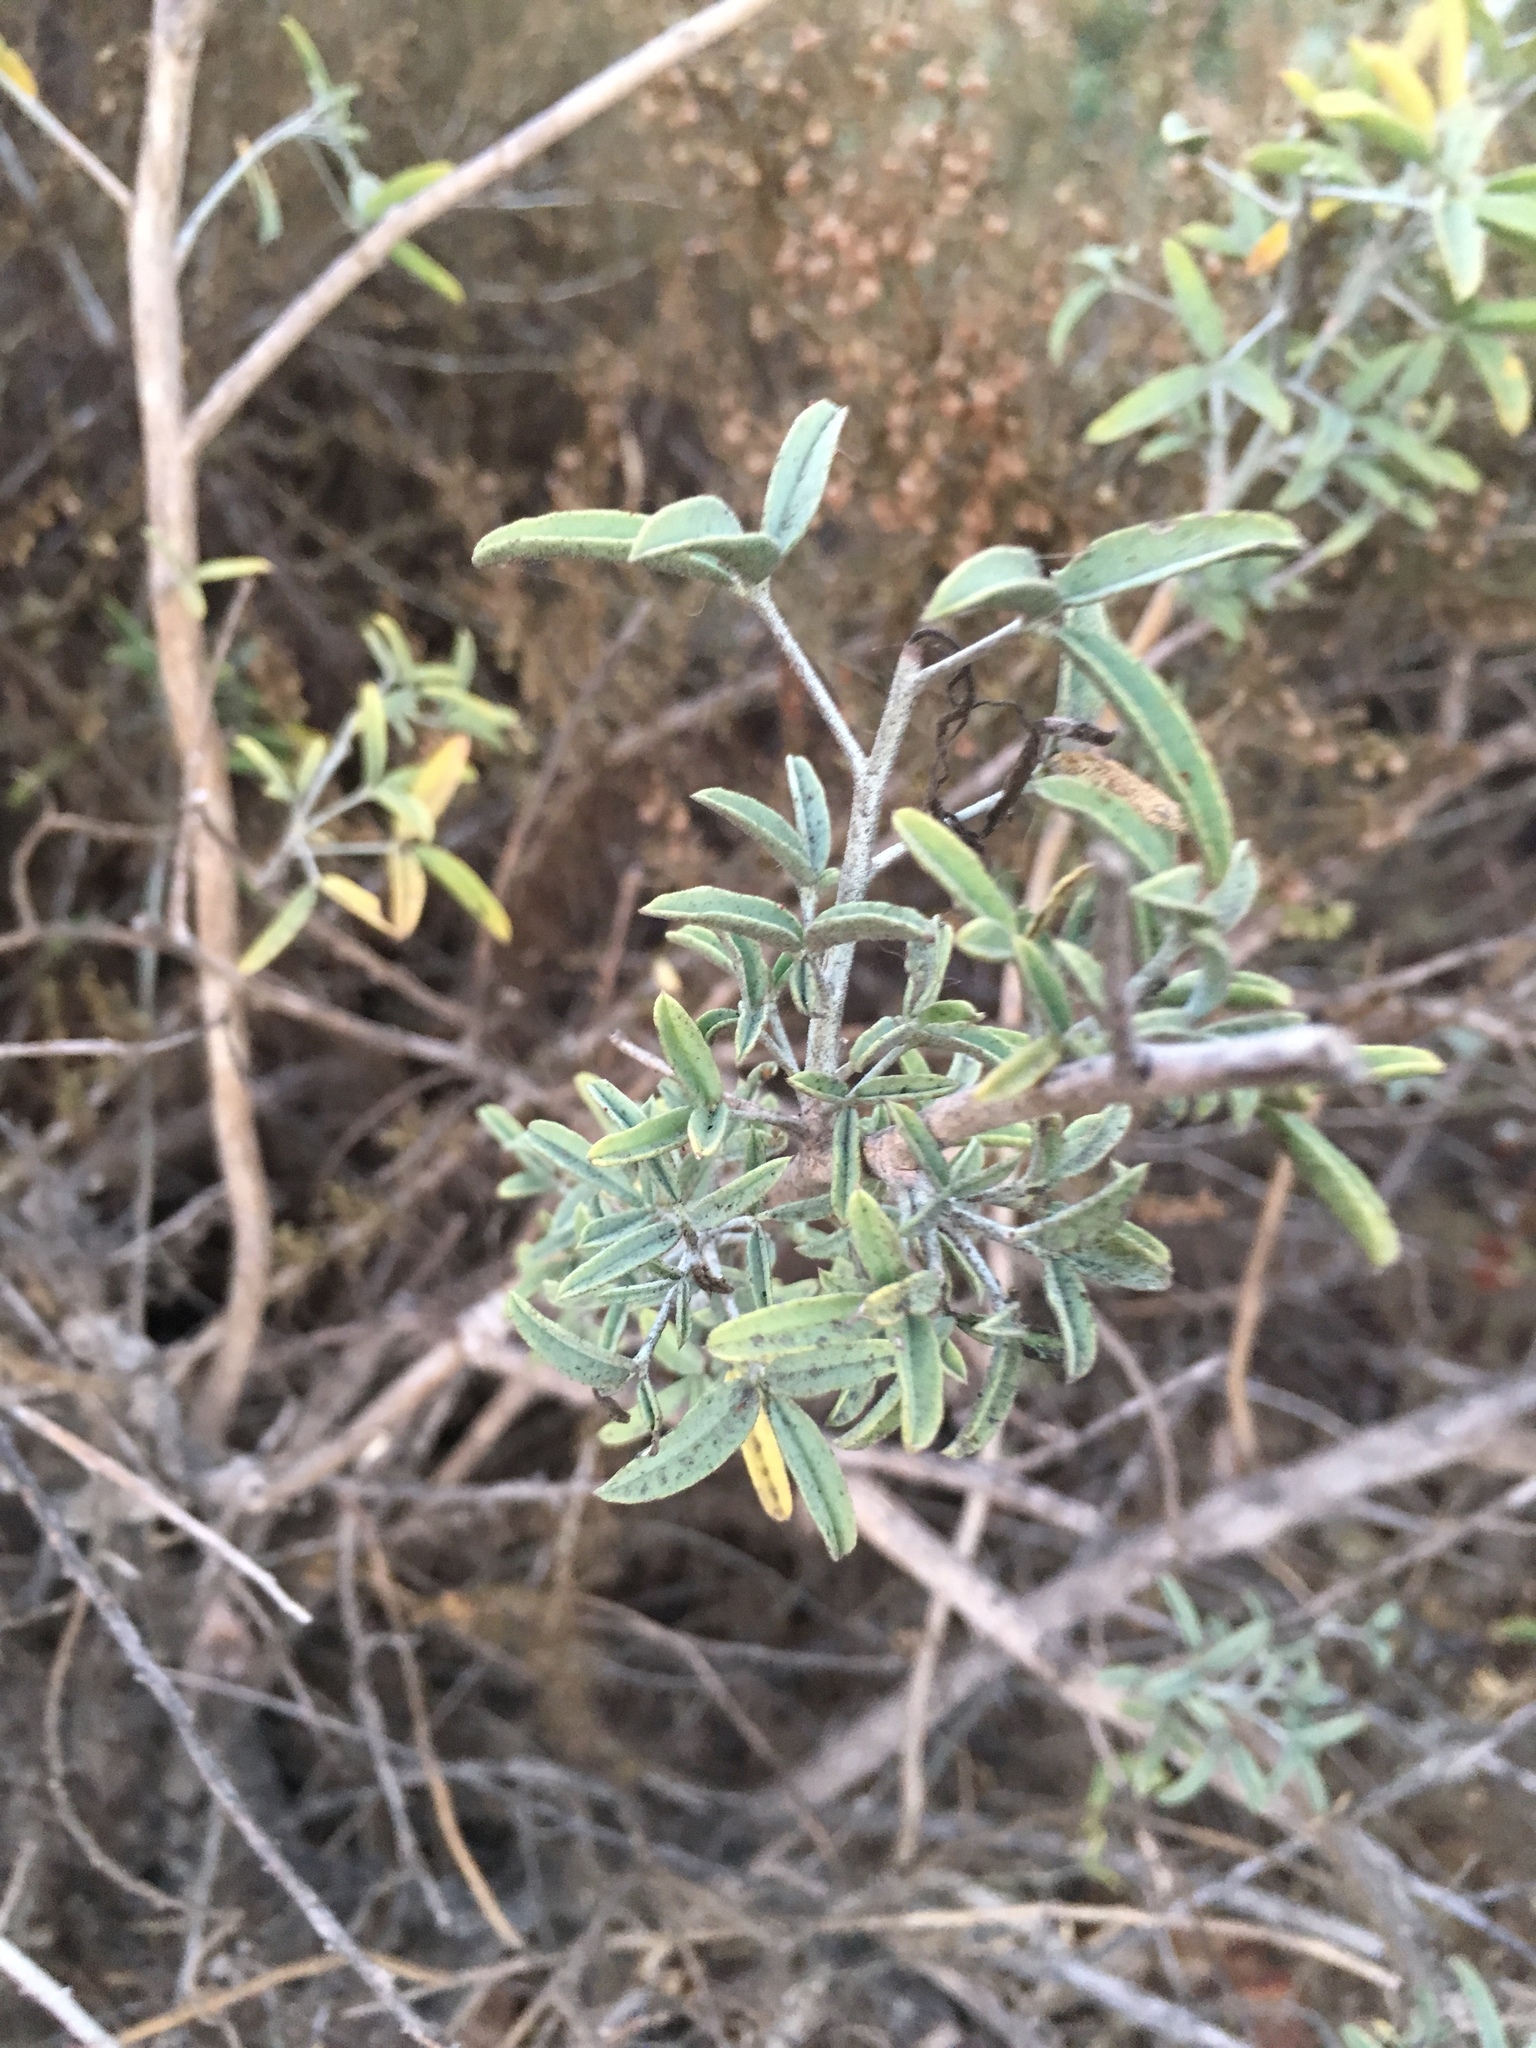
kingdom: Plantae
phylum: Tracheophyta
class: Magnoliopsida
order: Brassicales
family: Cleomaceae
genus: Cleomella
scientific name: Cleomella arborea
